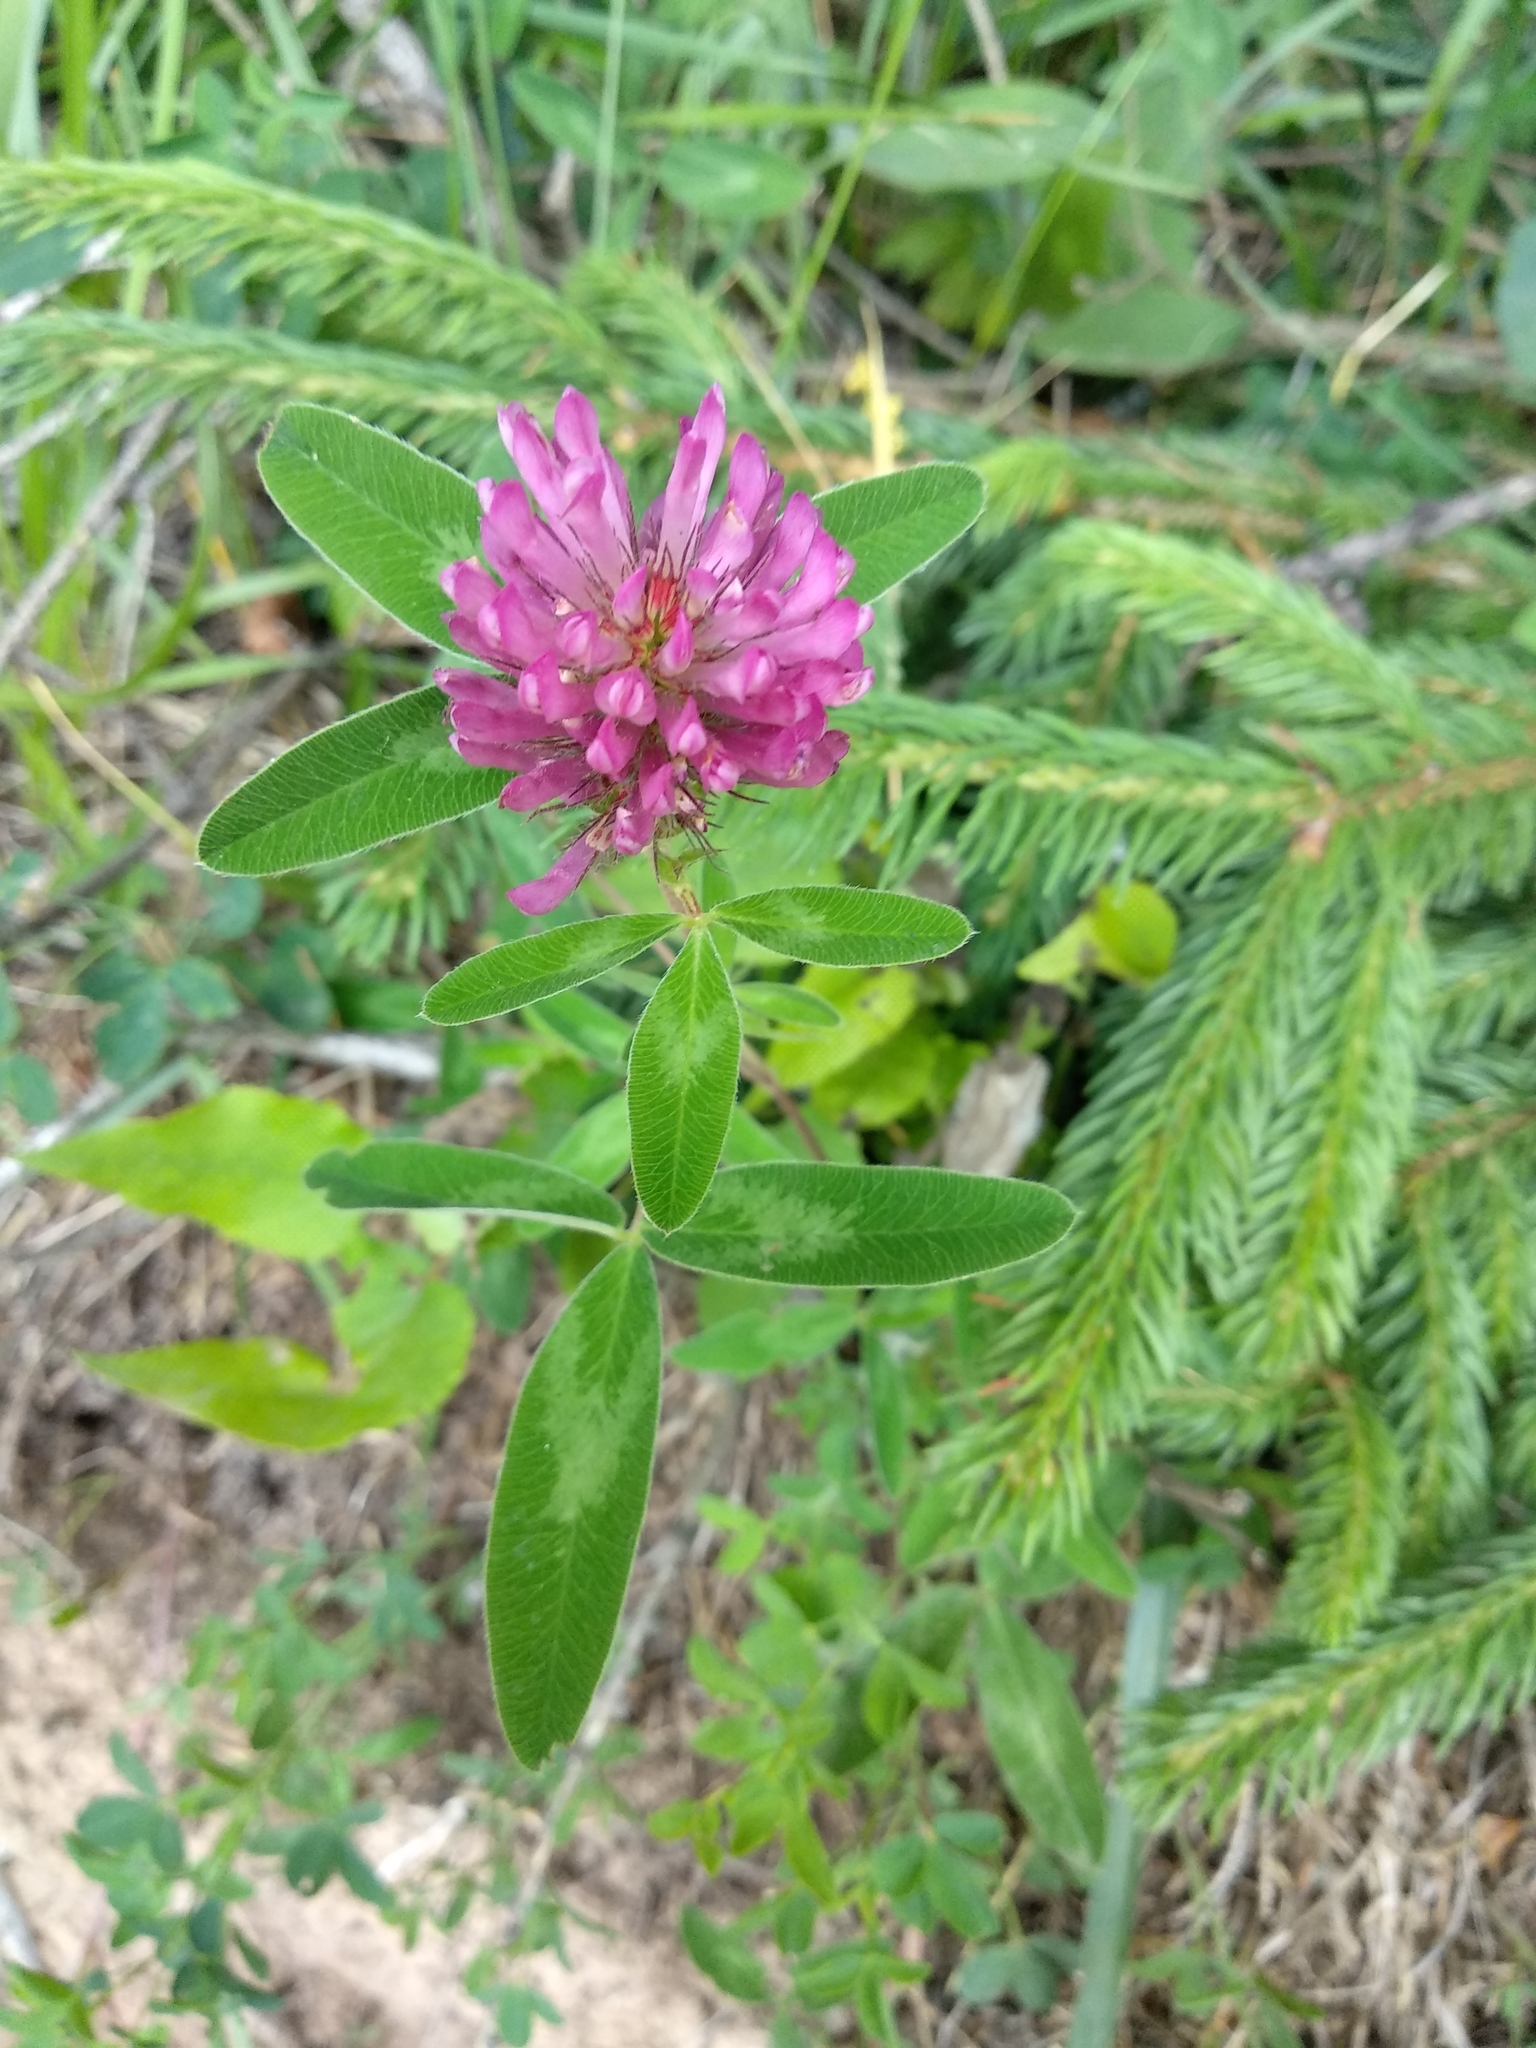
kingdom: Plantae
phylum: Tracheophyta
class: Magnoliopsida
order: Fabales
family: Fabaceae
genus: Trifolium
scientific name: Trifolium medium
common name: Zigzag clover
